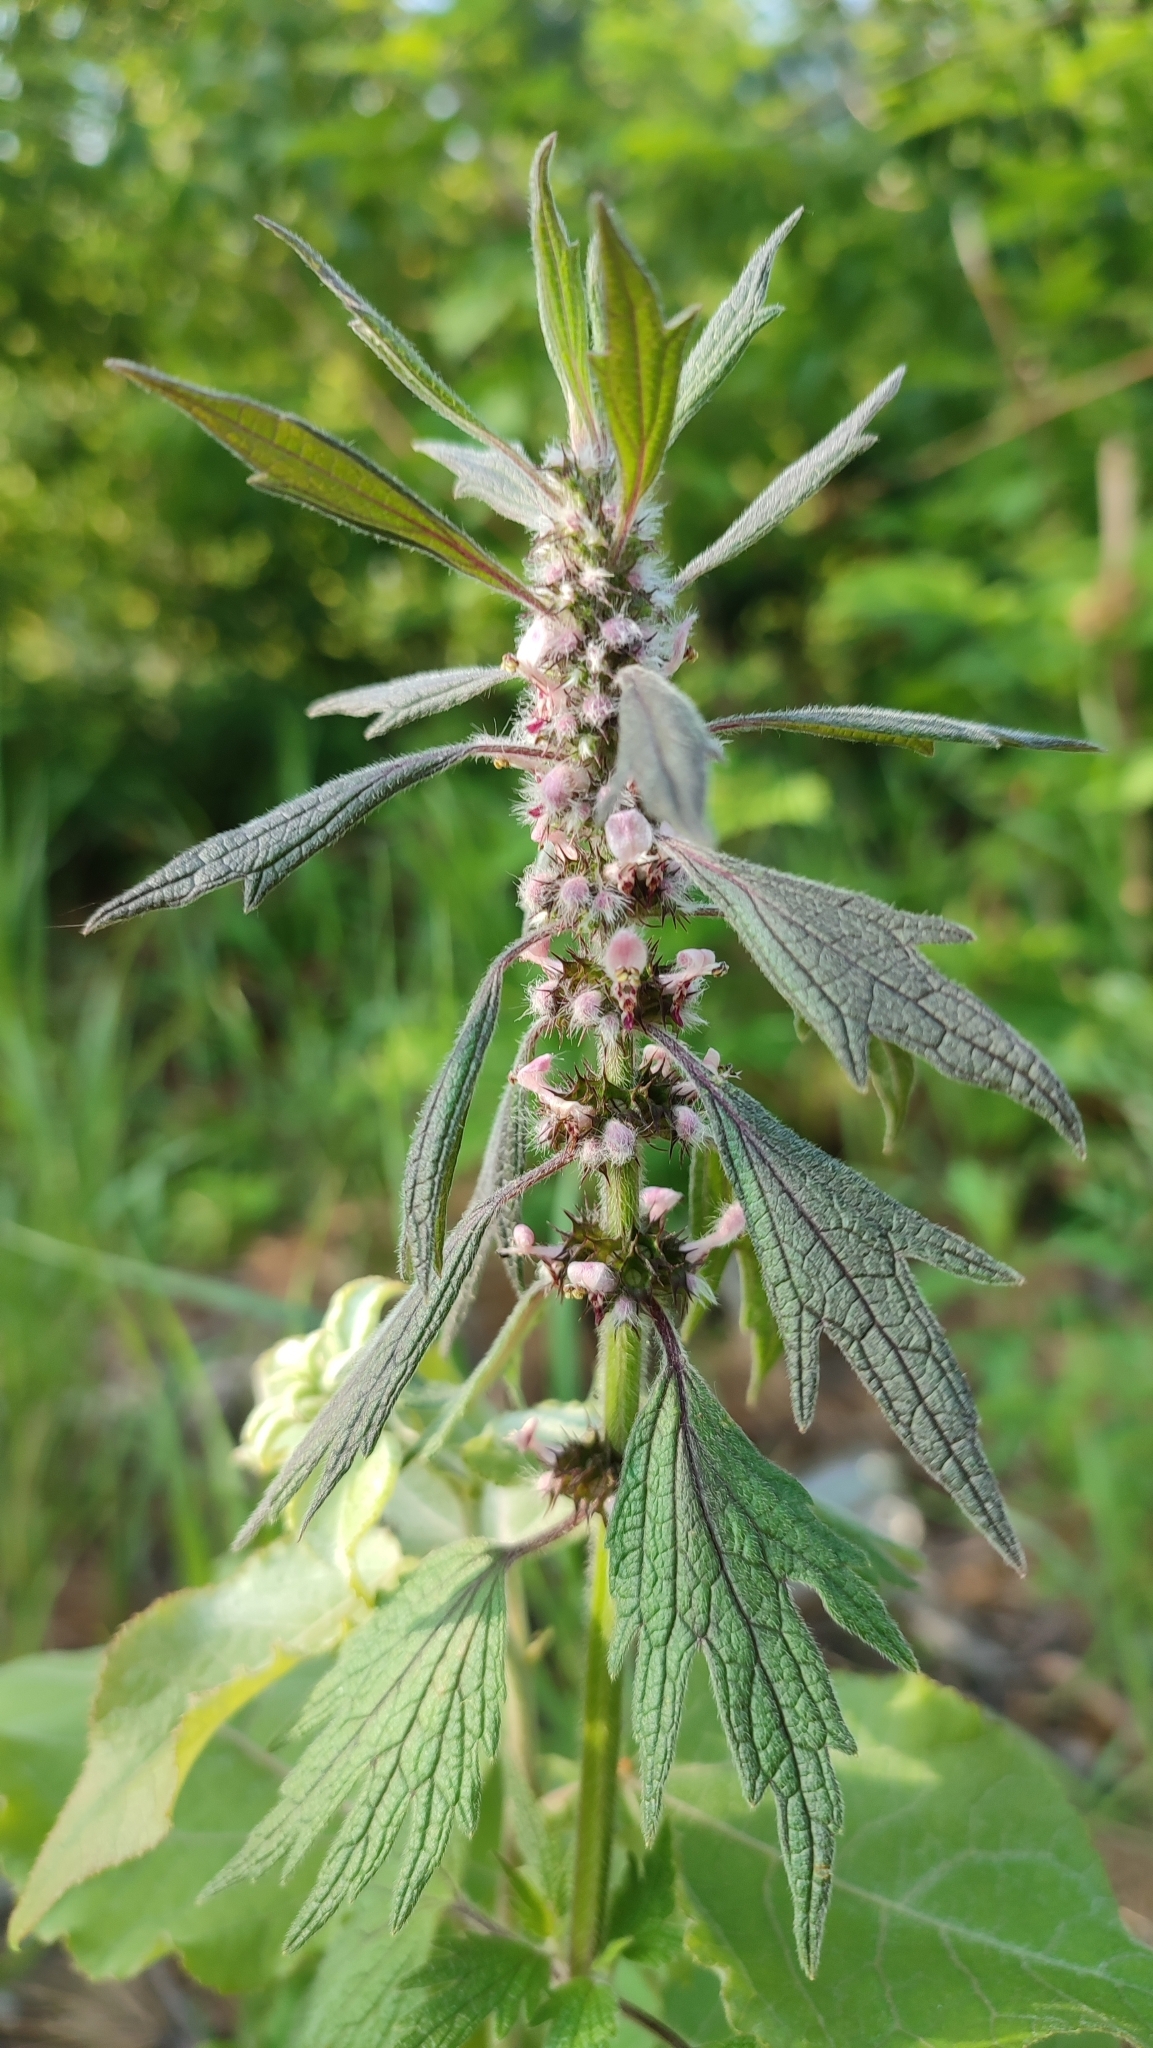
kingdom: Plantae
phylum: Tracheophyta
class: Magnoliopsida
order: Lamiales
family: Lamiaceae
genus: Leonurus
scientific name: Leonurus quinquelobatus
